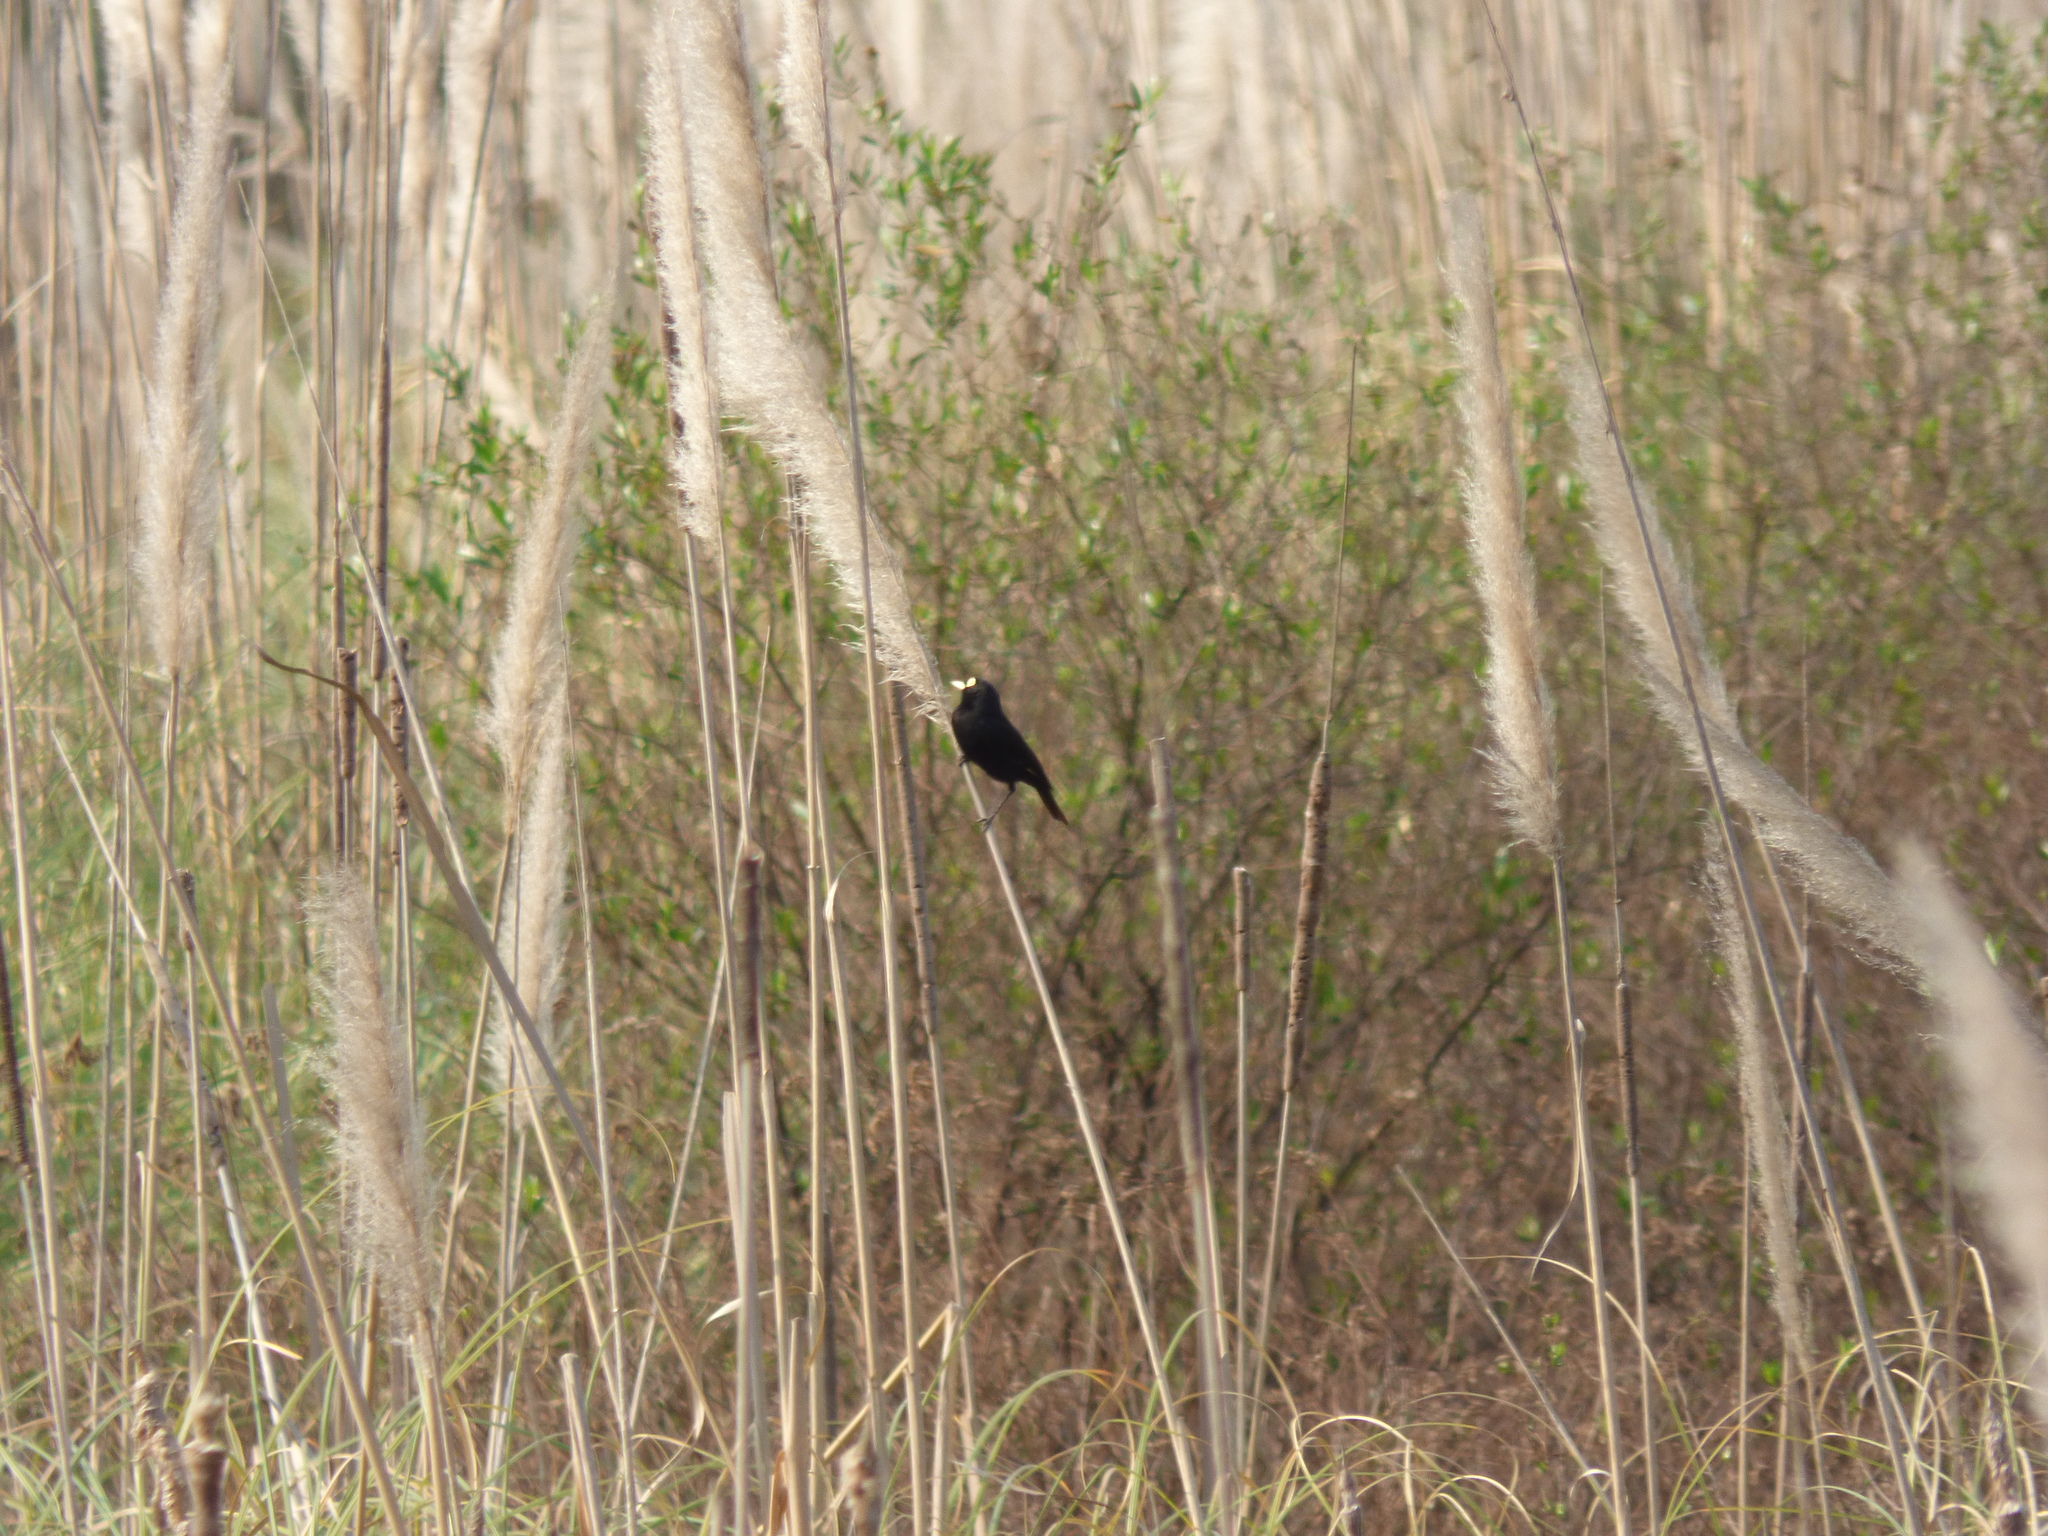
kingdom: Animalia
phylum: Chordata
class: Aves
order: Passeriformes
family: Tyrannidae
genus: Hymenops
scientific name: Hymenops perspicillatus
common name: Spectacled tyrant
